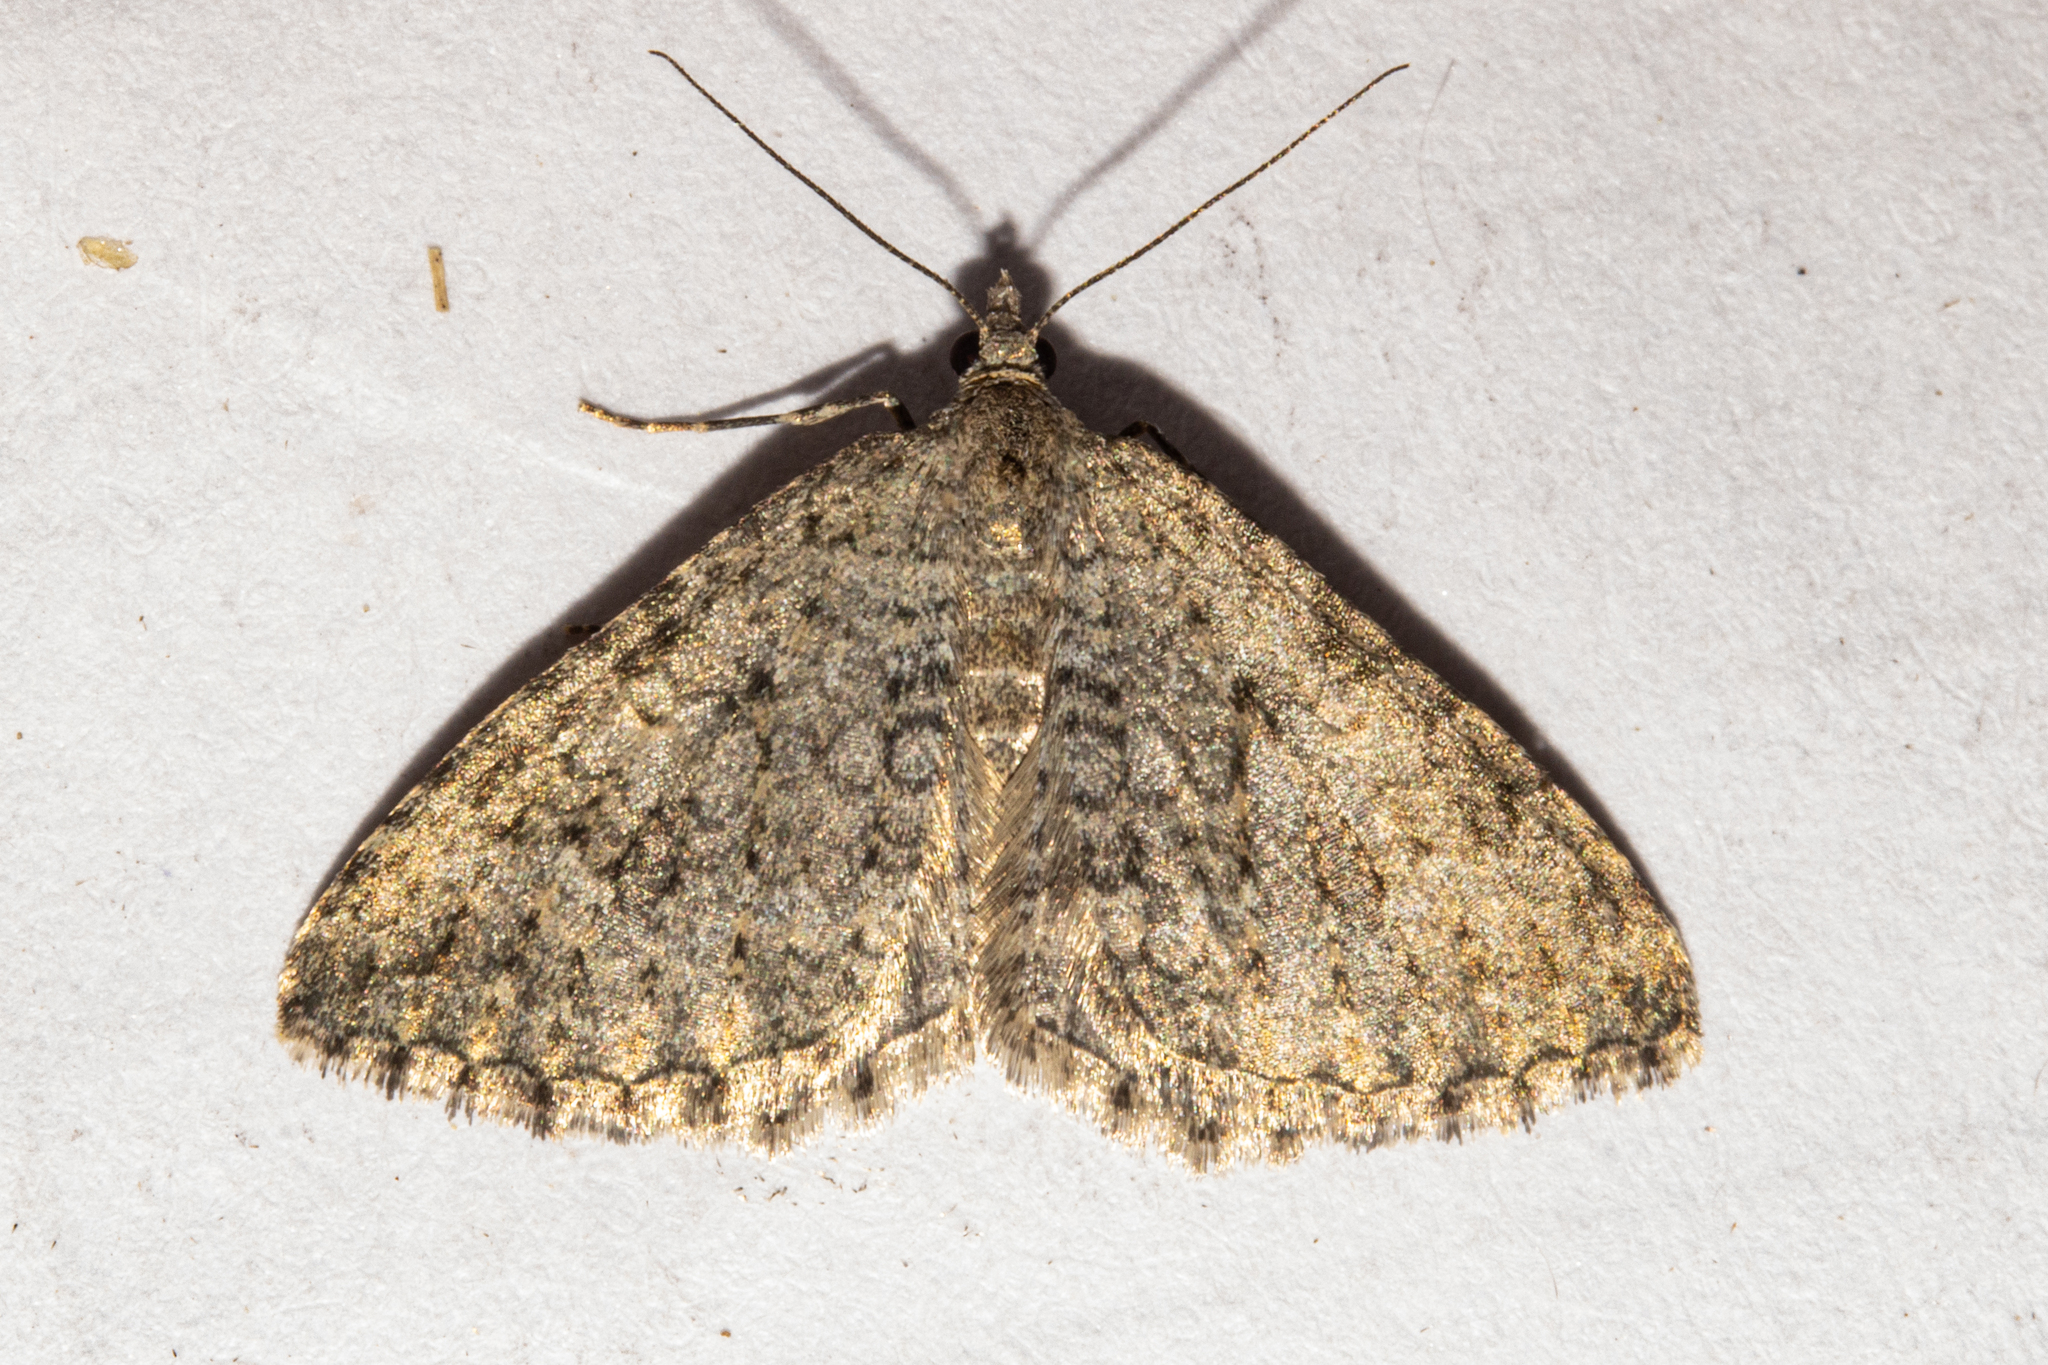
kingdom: Animalia
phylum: Arthropoda
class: Insecta
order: Lepidoptera
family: Geometridae
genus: Helastia
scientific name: Helastia corcularia
